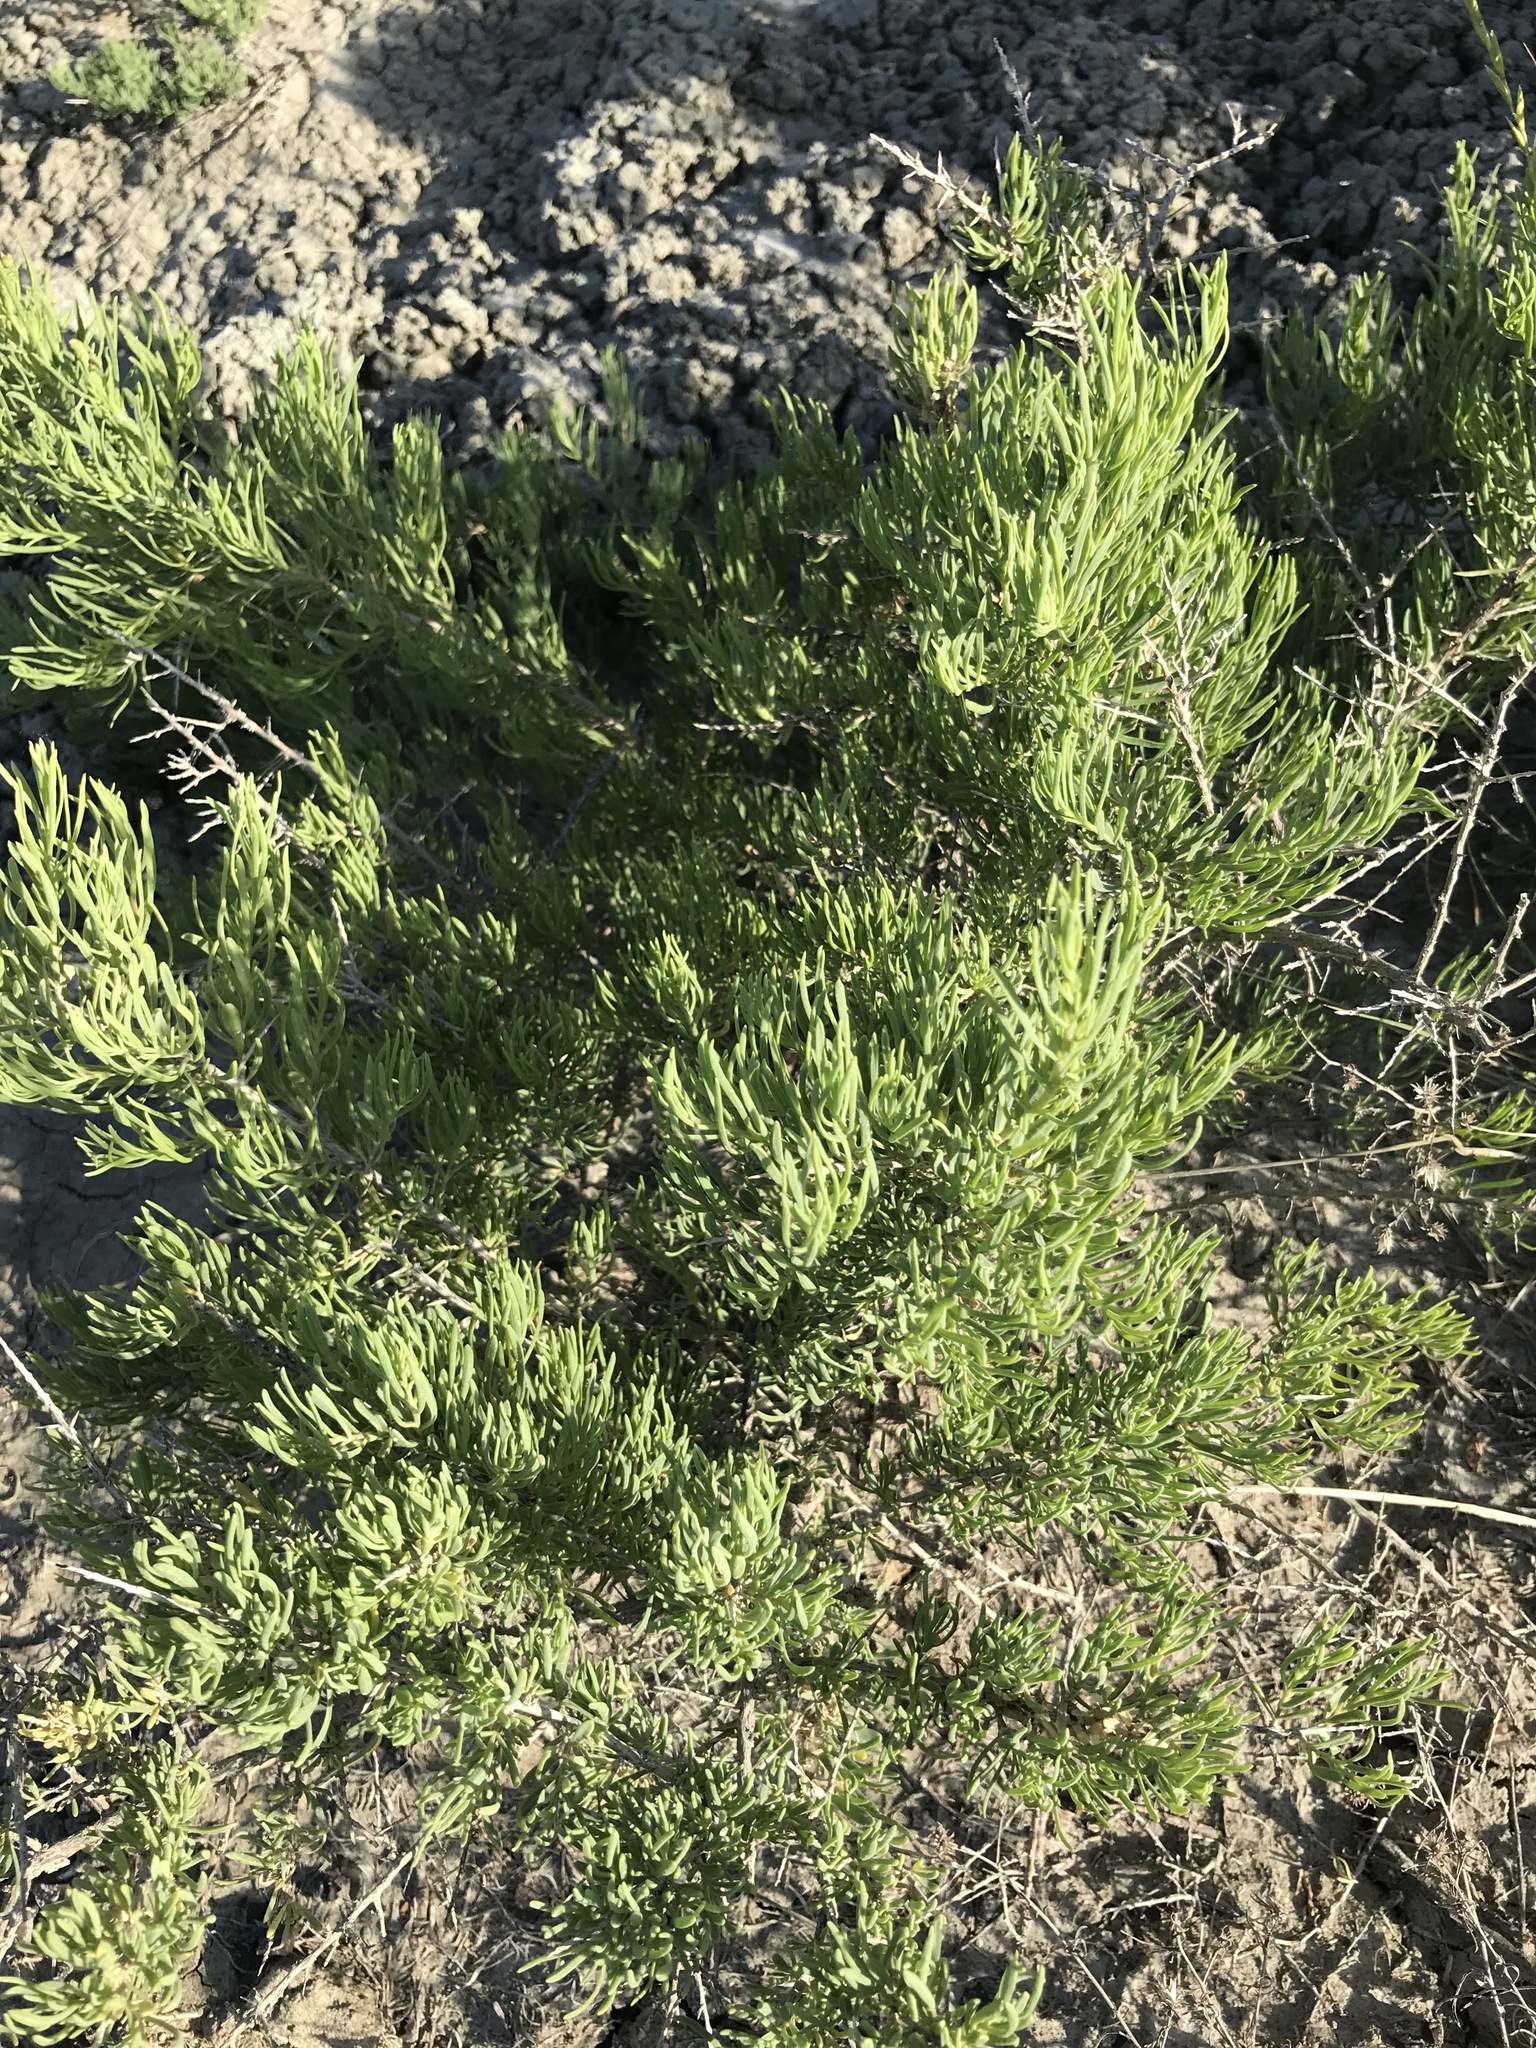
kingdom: Plantae
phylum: Tracheophyta
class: Magnoliopsida
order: Caryophyllales
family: Sarcobataceae
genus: Sarcobatus
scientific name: Sarcobatus vermiculatus
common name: Greasewood
